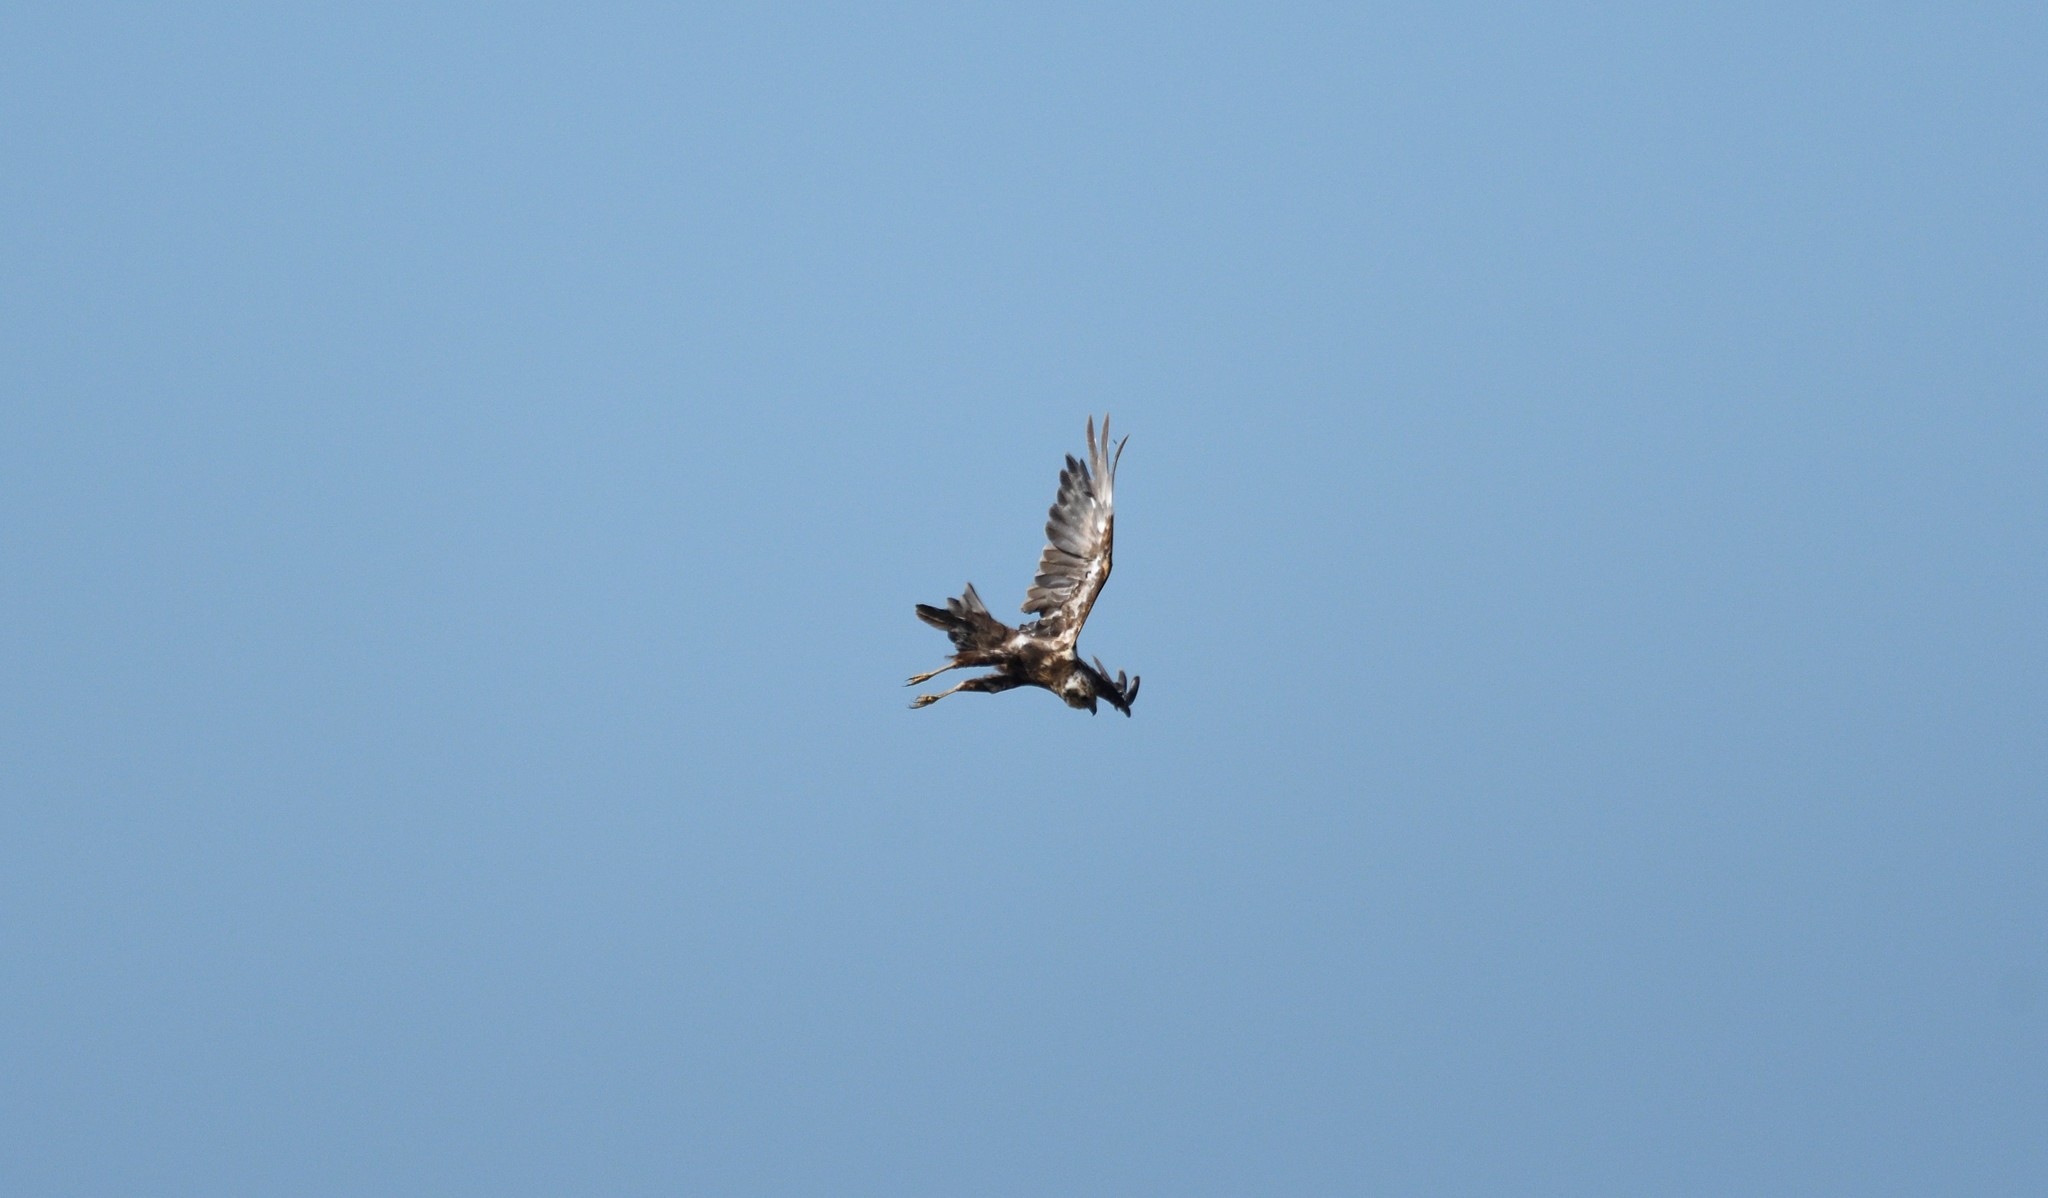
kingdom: Animalia
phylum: Chordata
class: Aves
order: Accipitriformes
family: Accipitridae
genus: Circus
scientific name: Circus aeruginosus
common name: Western marsh harrier
